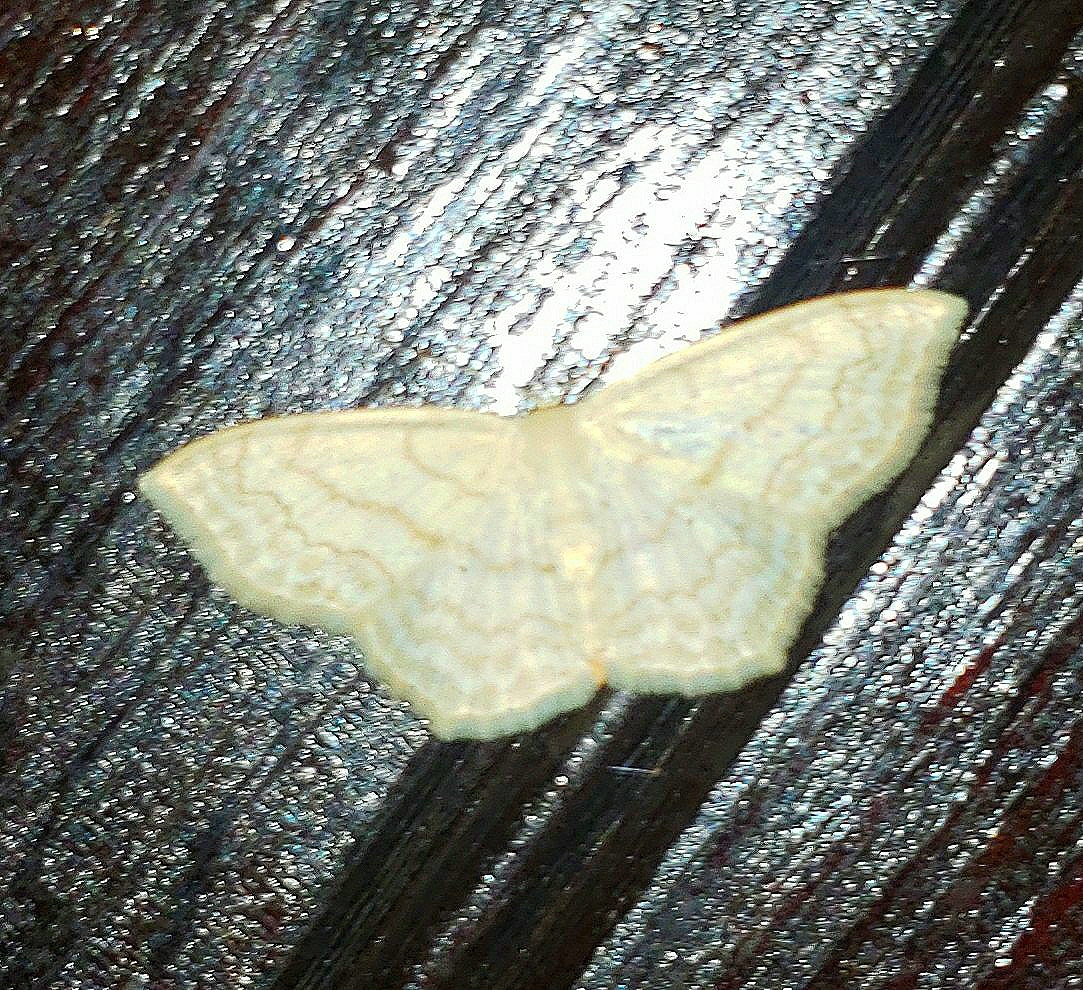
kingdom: Animalia
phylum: Arthropoda
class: Insecta
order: Lepidoptera
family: Geometridae
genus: Scopula
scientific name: Scopula limboundata
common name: Large lace border
